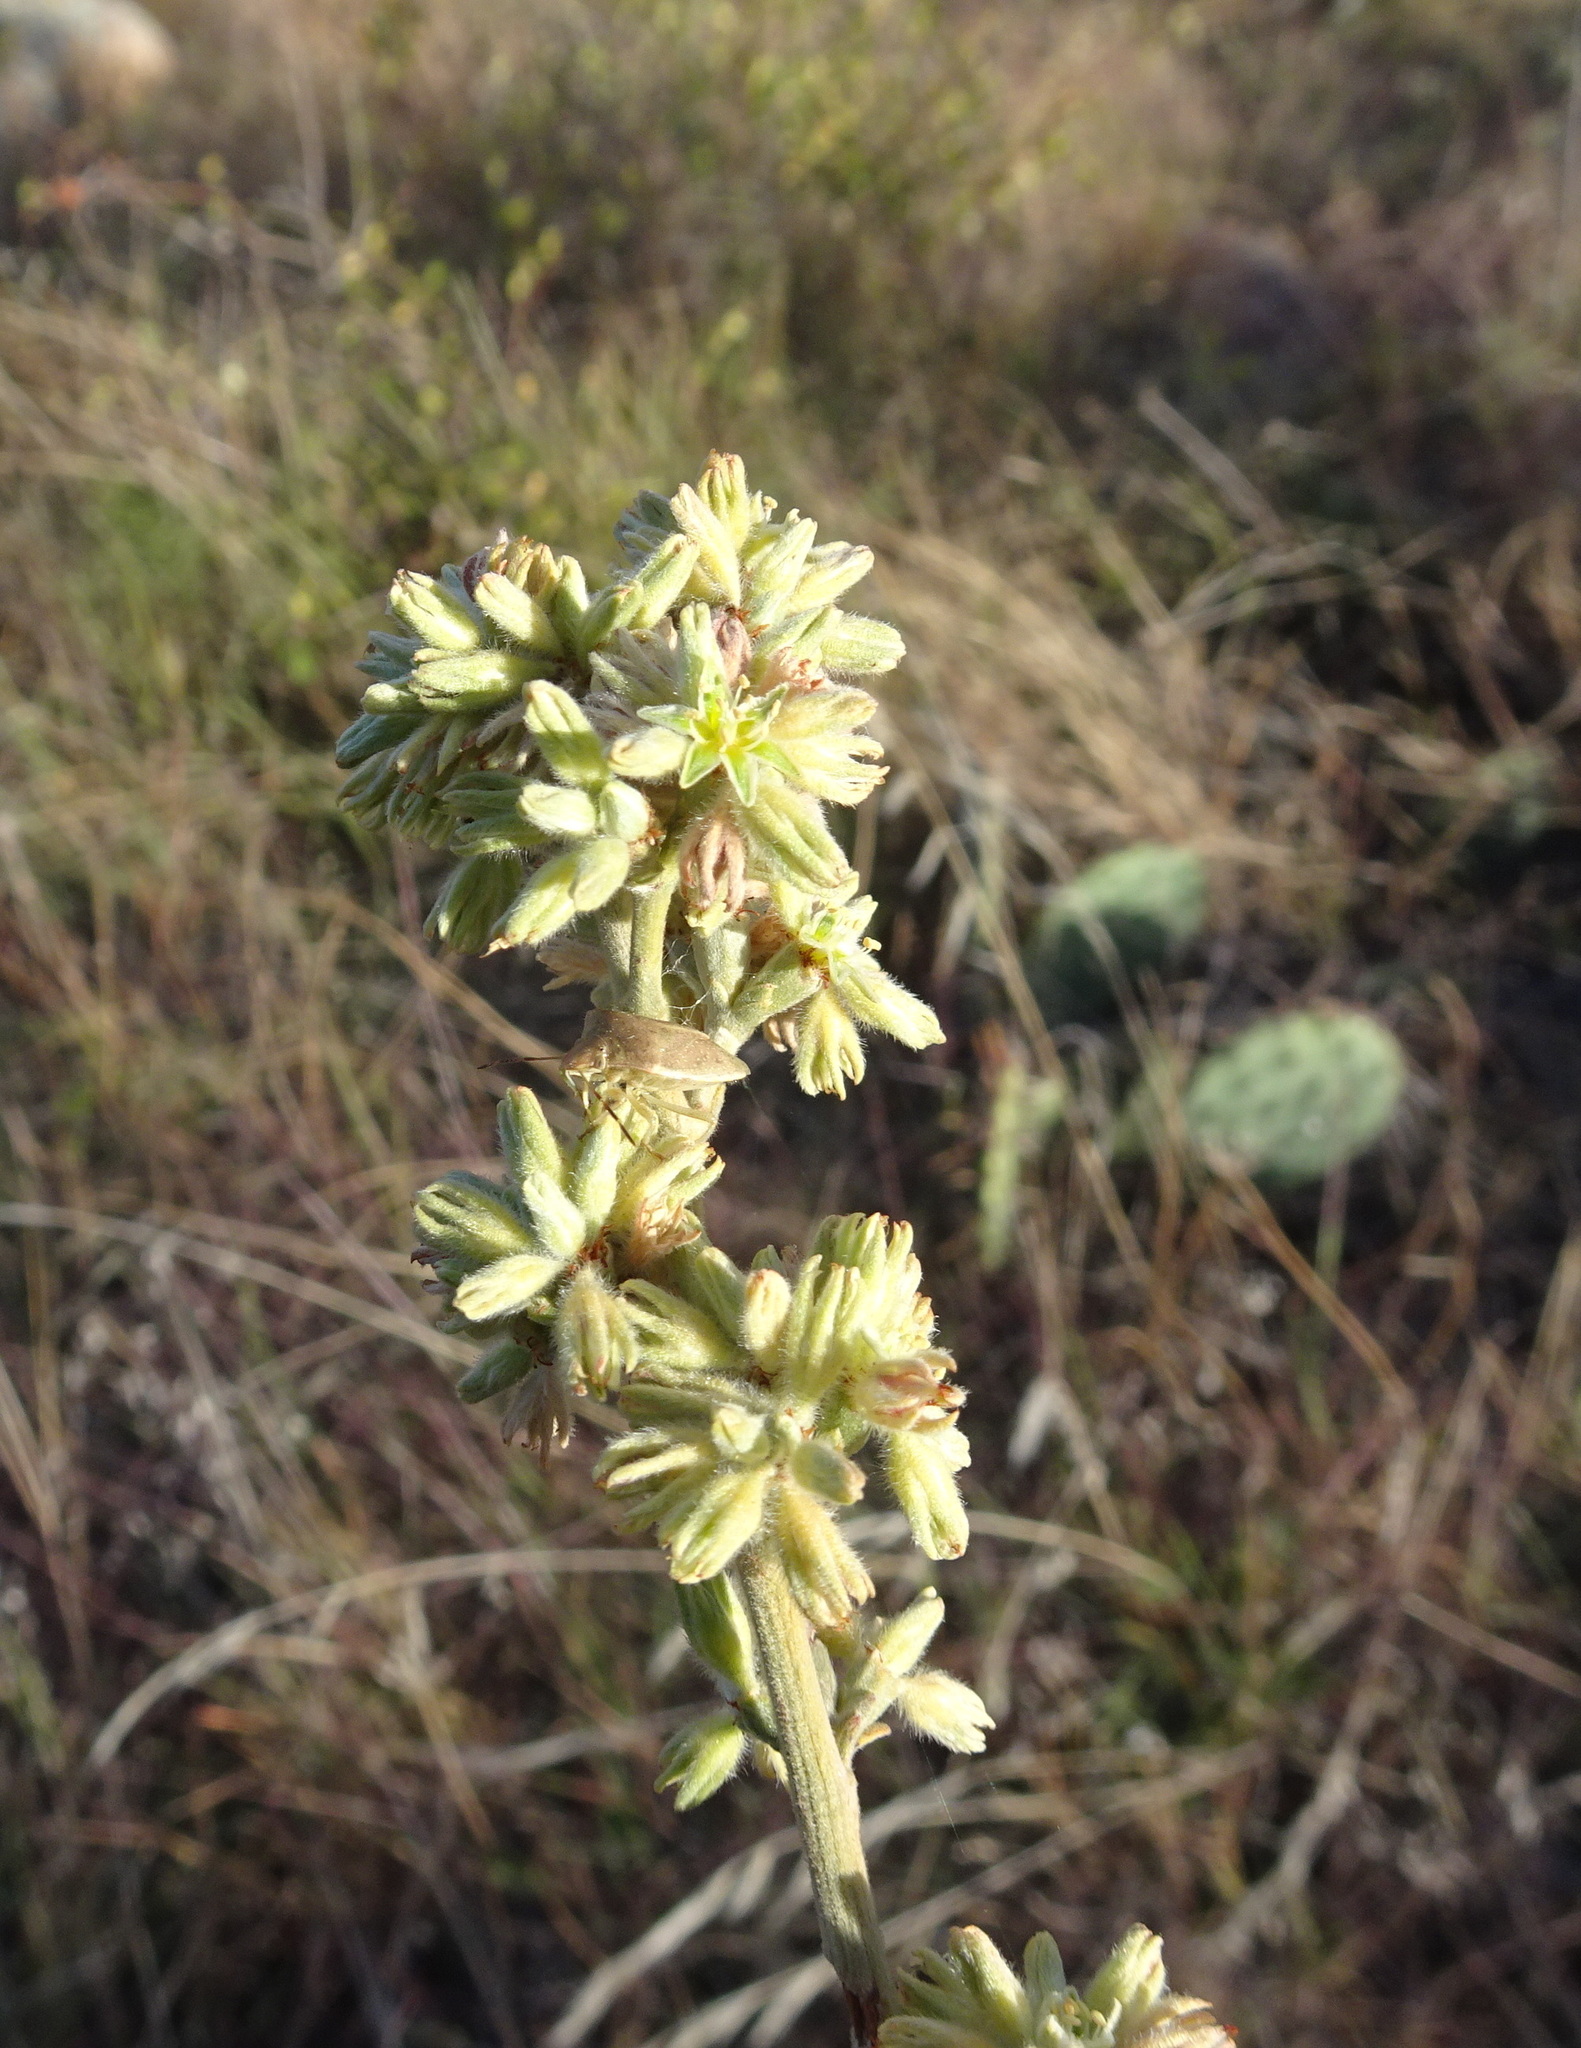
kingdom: Animalia
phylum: Arthropoda
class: Insecta
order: Hemiptera
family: Pentatomidae
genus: Thyanta
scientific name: Thyanta accerra
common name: Stink bug
